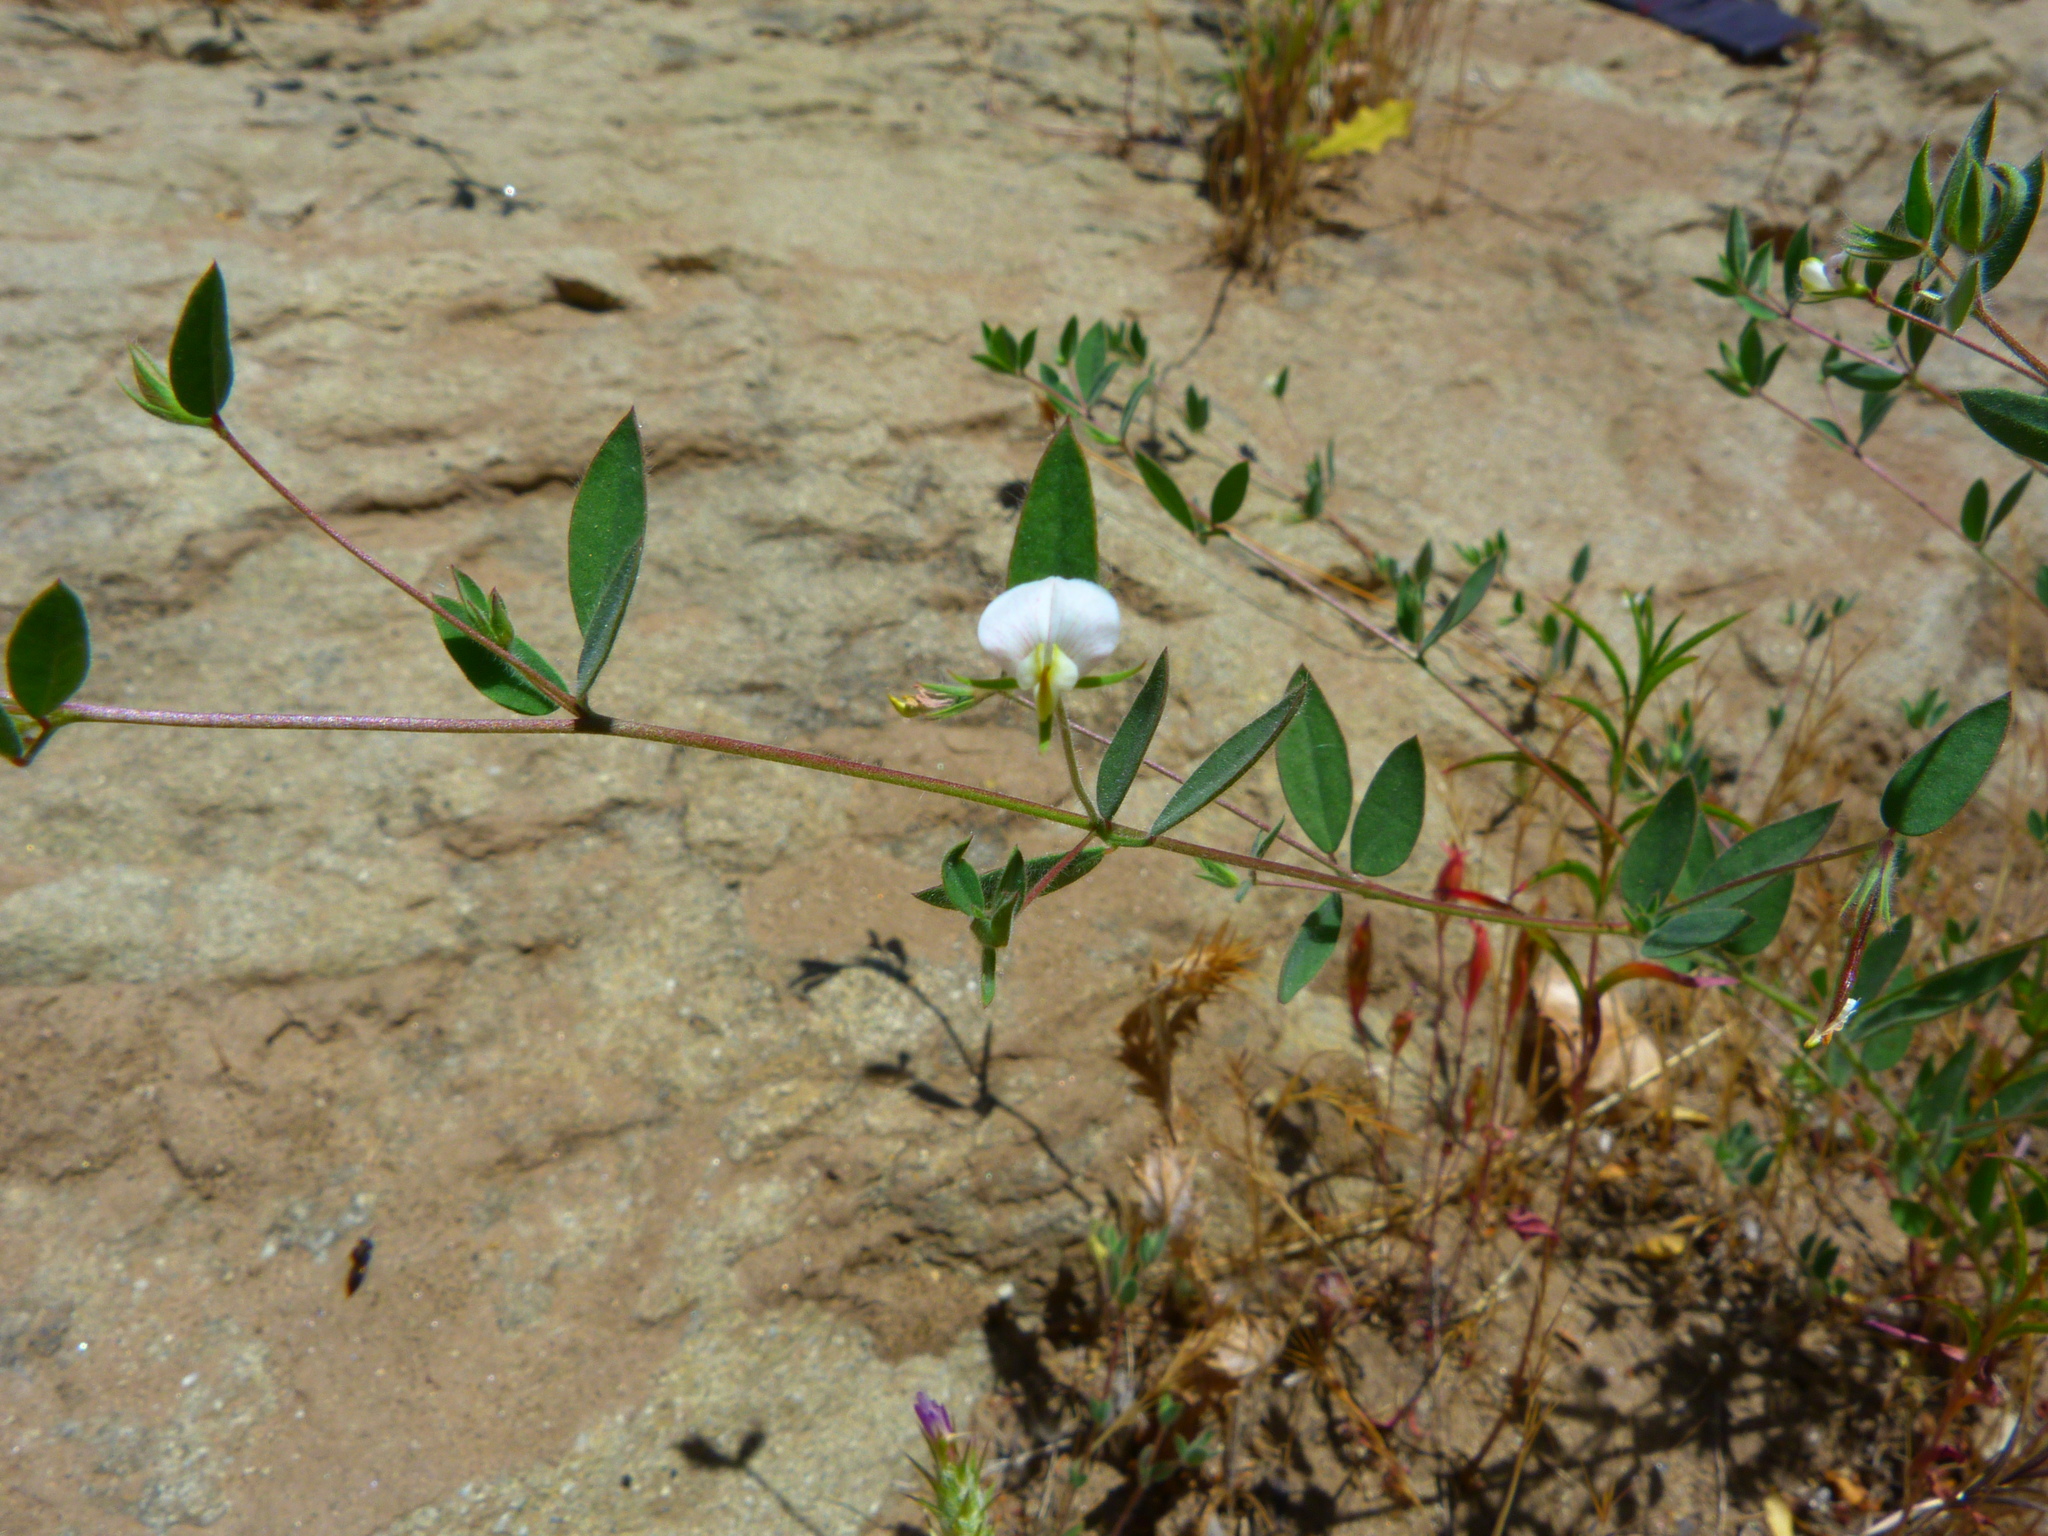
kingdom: Plantae
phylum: Tracheophyta
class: Magnoliopsida
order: Fabales
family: Fabaceae
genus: Acmispon
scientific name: Acmispon americanus
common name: American bird's-foot trefoil
